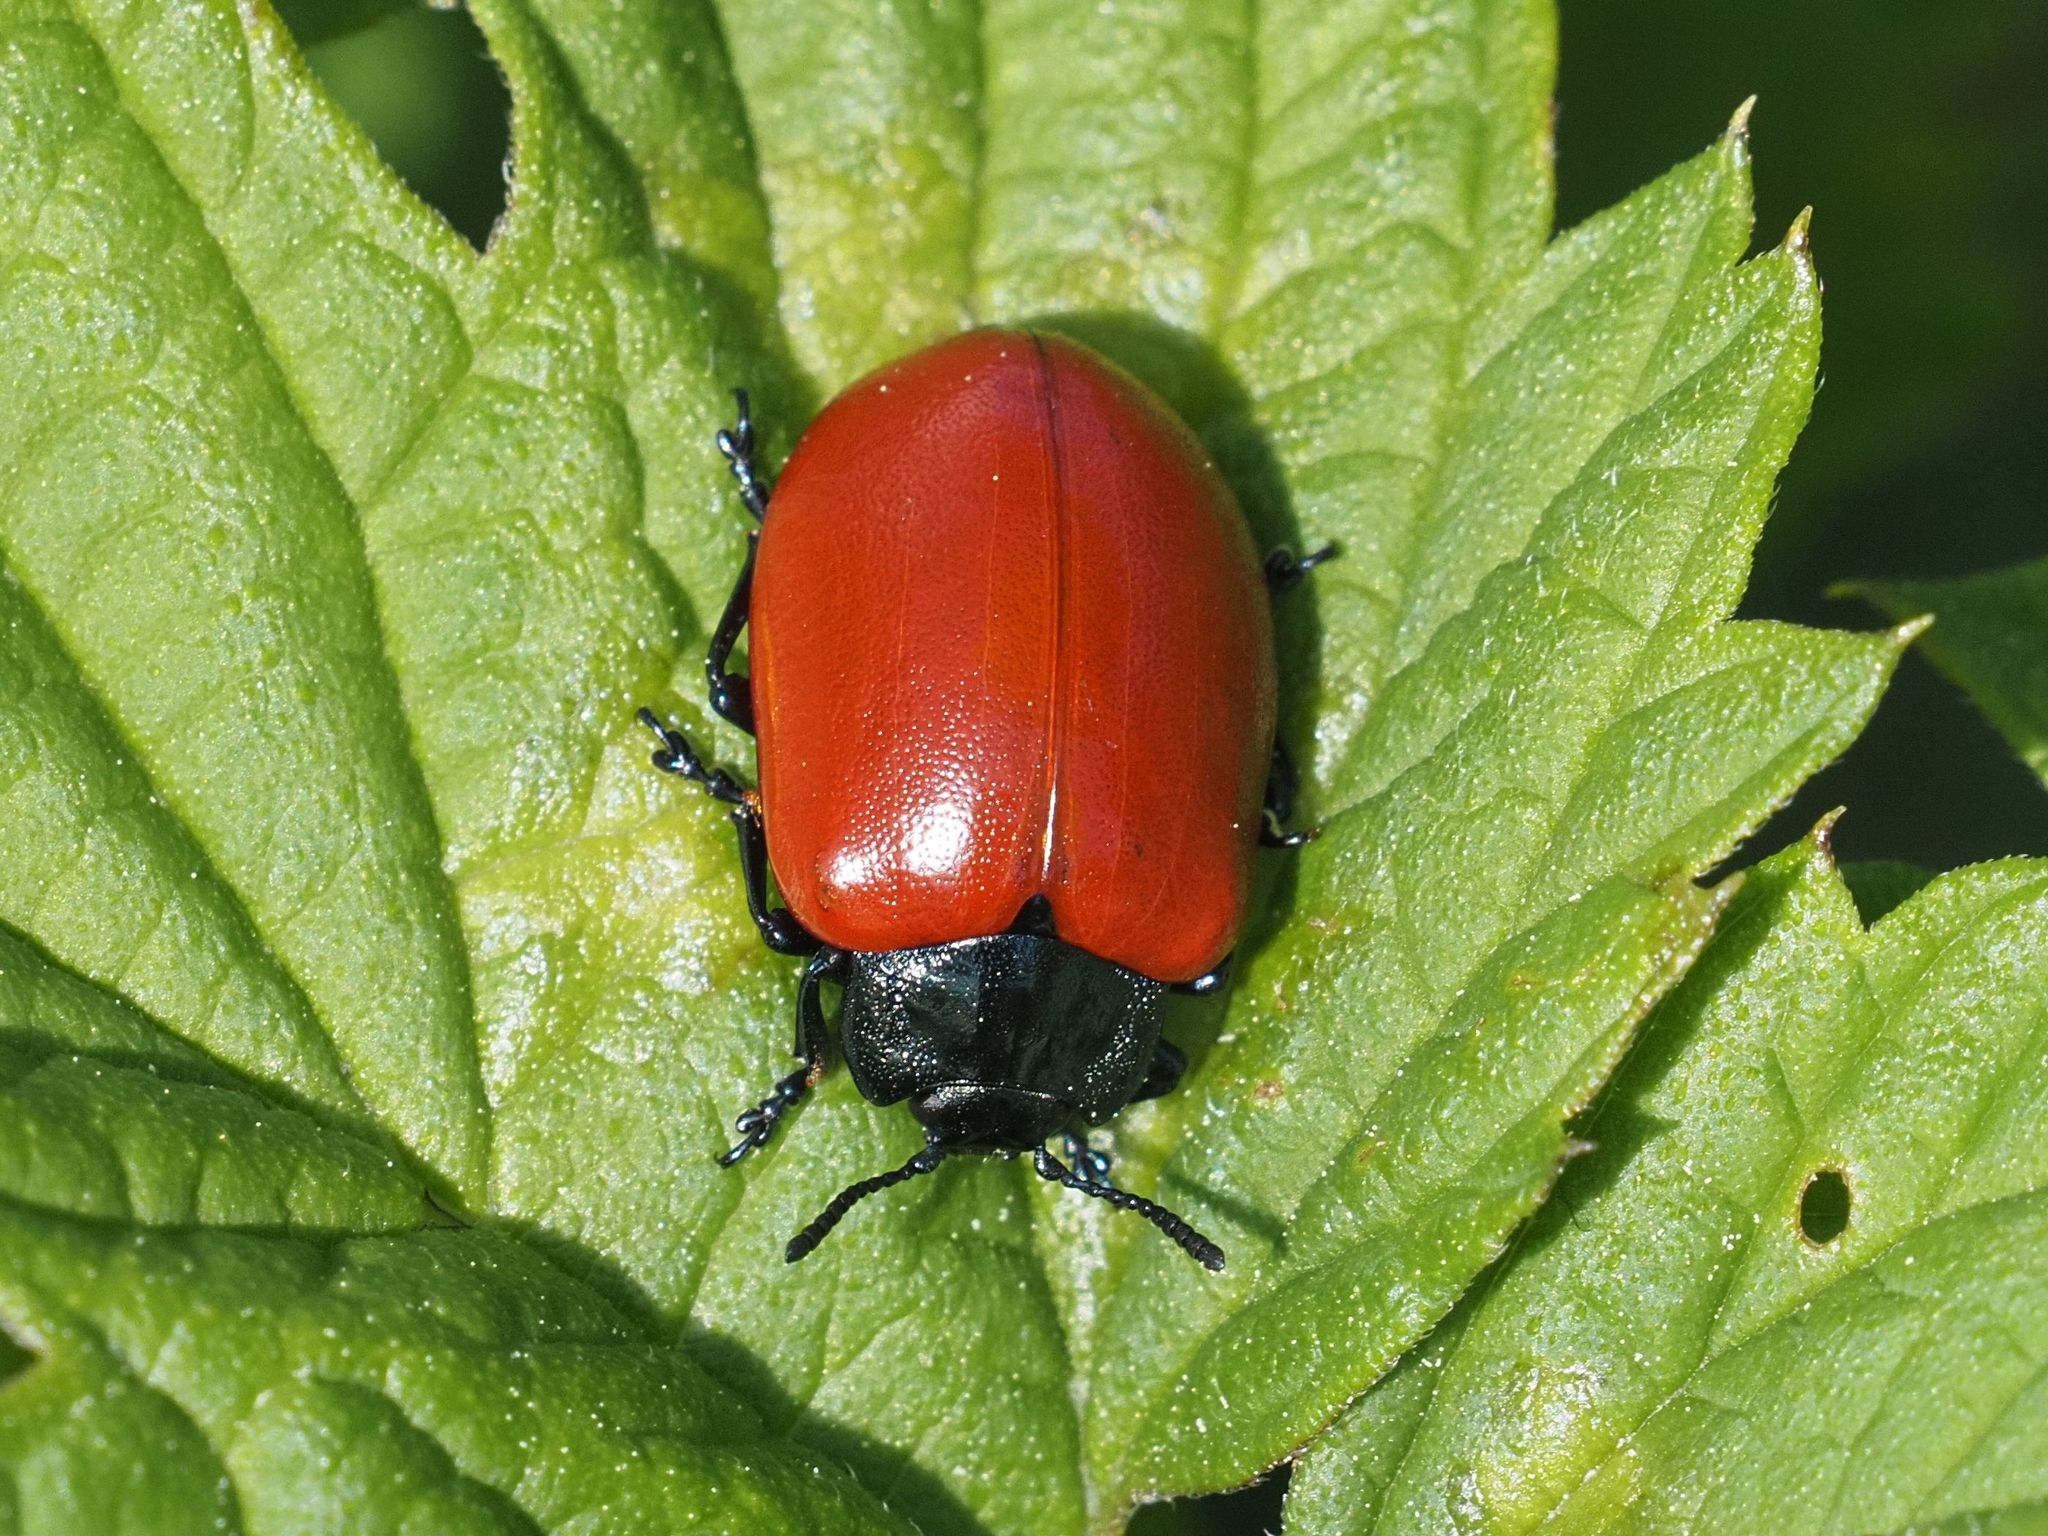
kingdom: Animalia
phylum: Arthropoda
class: Insecta
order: Coleoptera
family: Chrysomelidae
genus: Chrysomela
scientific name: Chrysomela populi
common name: Red poplar leaf beetle
